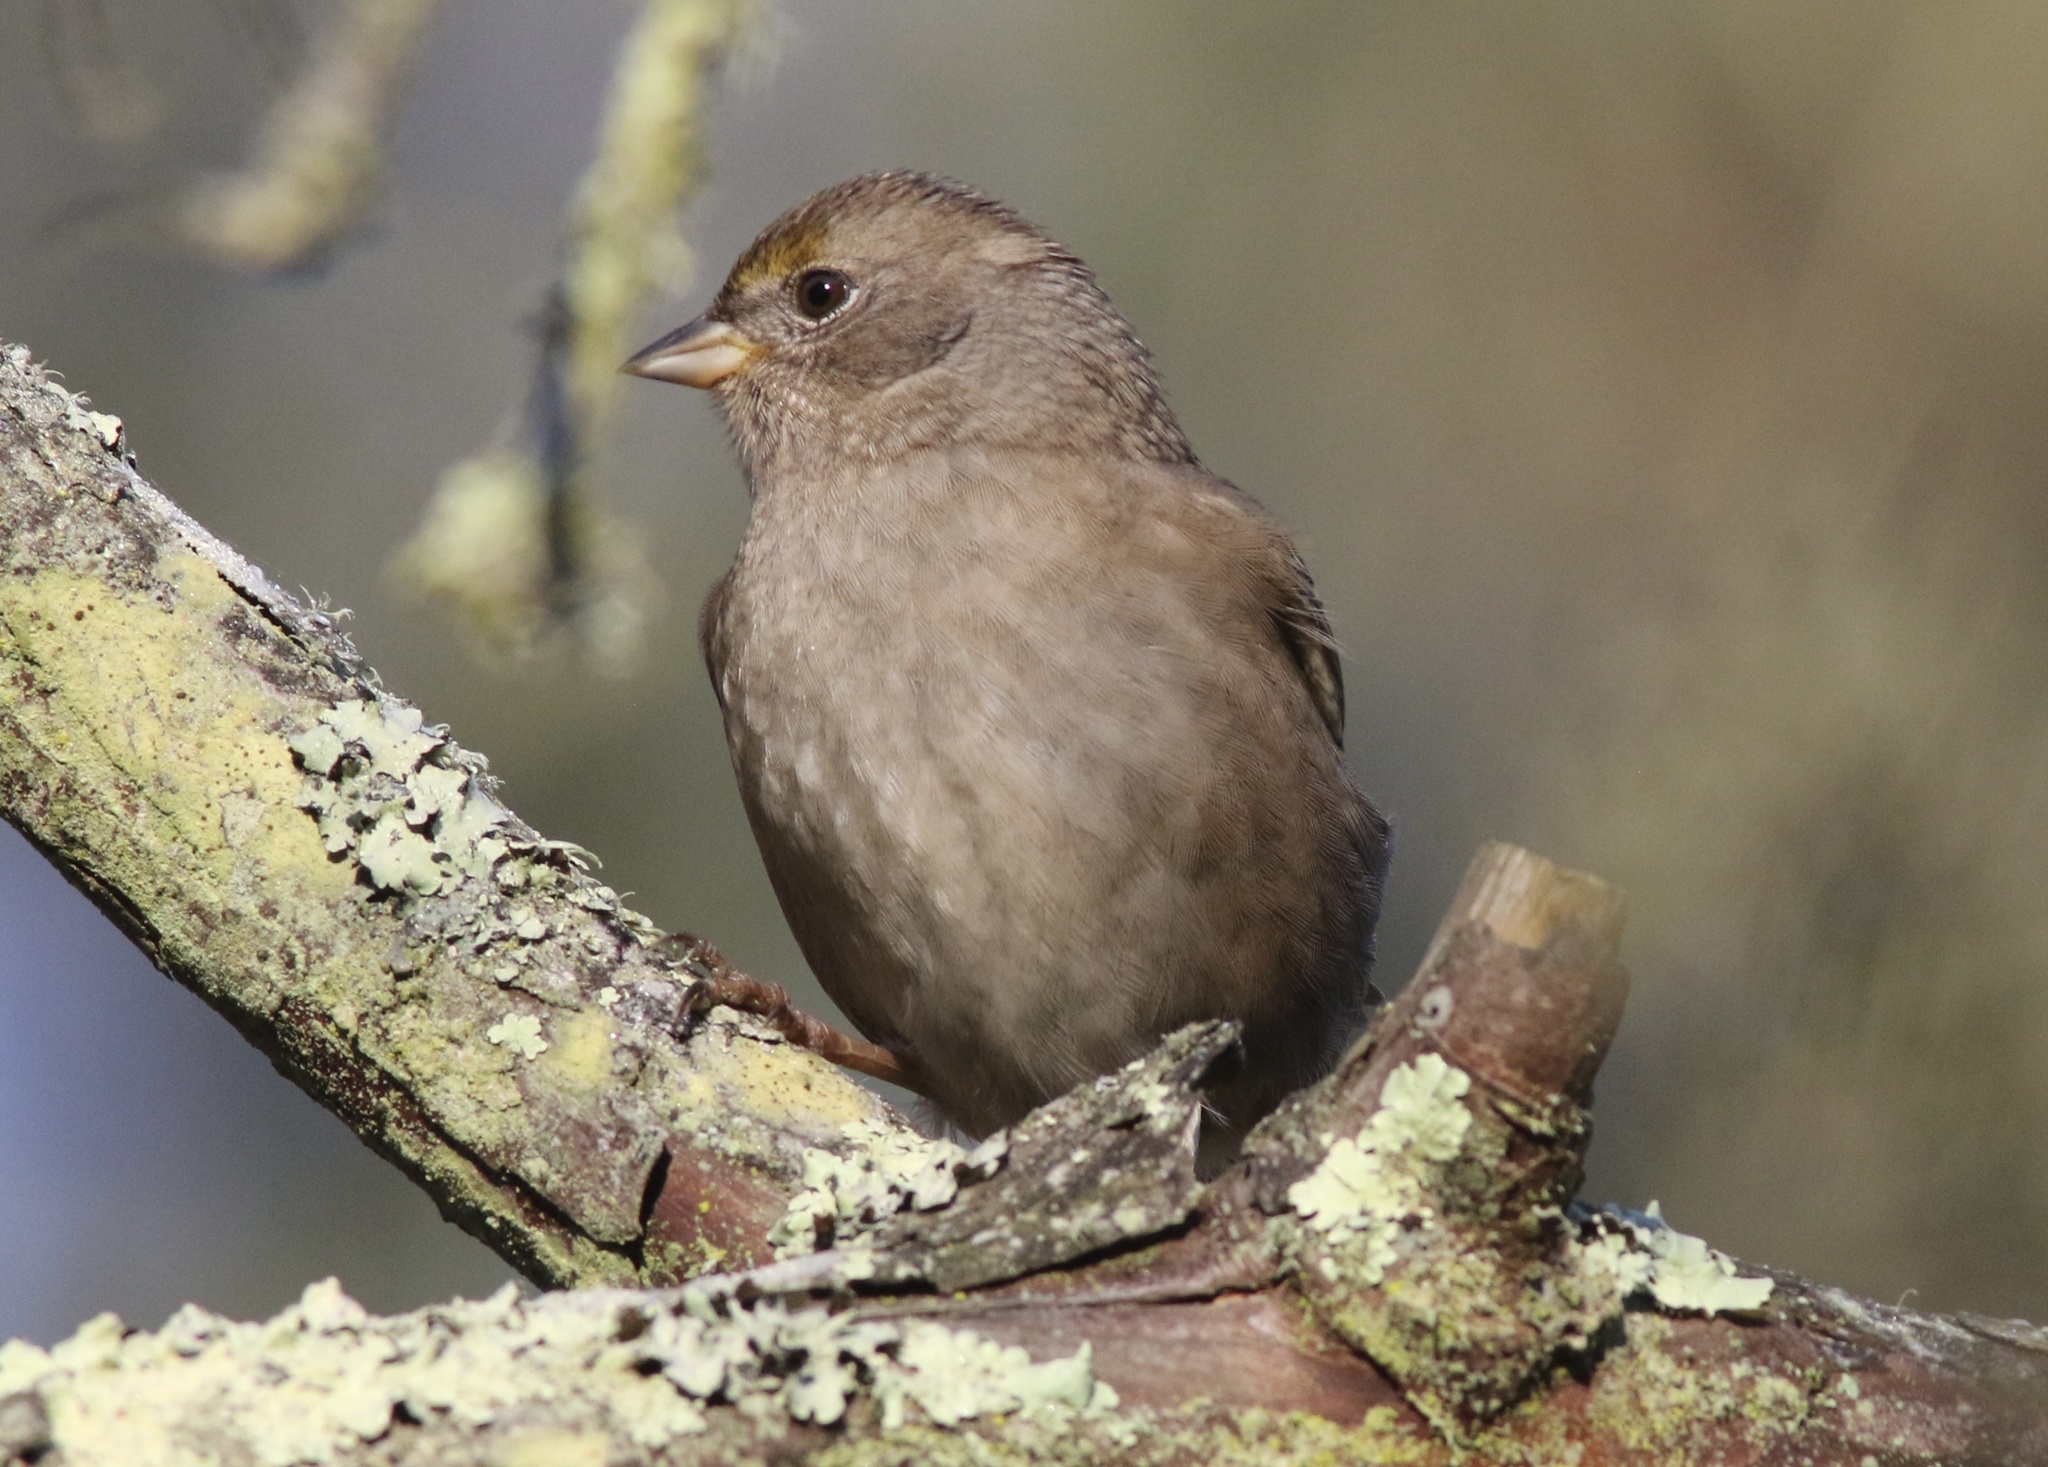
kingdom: Animalia
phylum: Chordata
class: Aves
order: Passeriformes
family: Passerellidae
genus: Zonotrichia
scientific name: Zonotrichia atricapilla
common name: Golden-crowned sparrow
